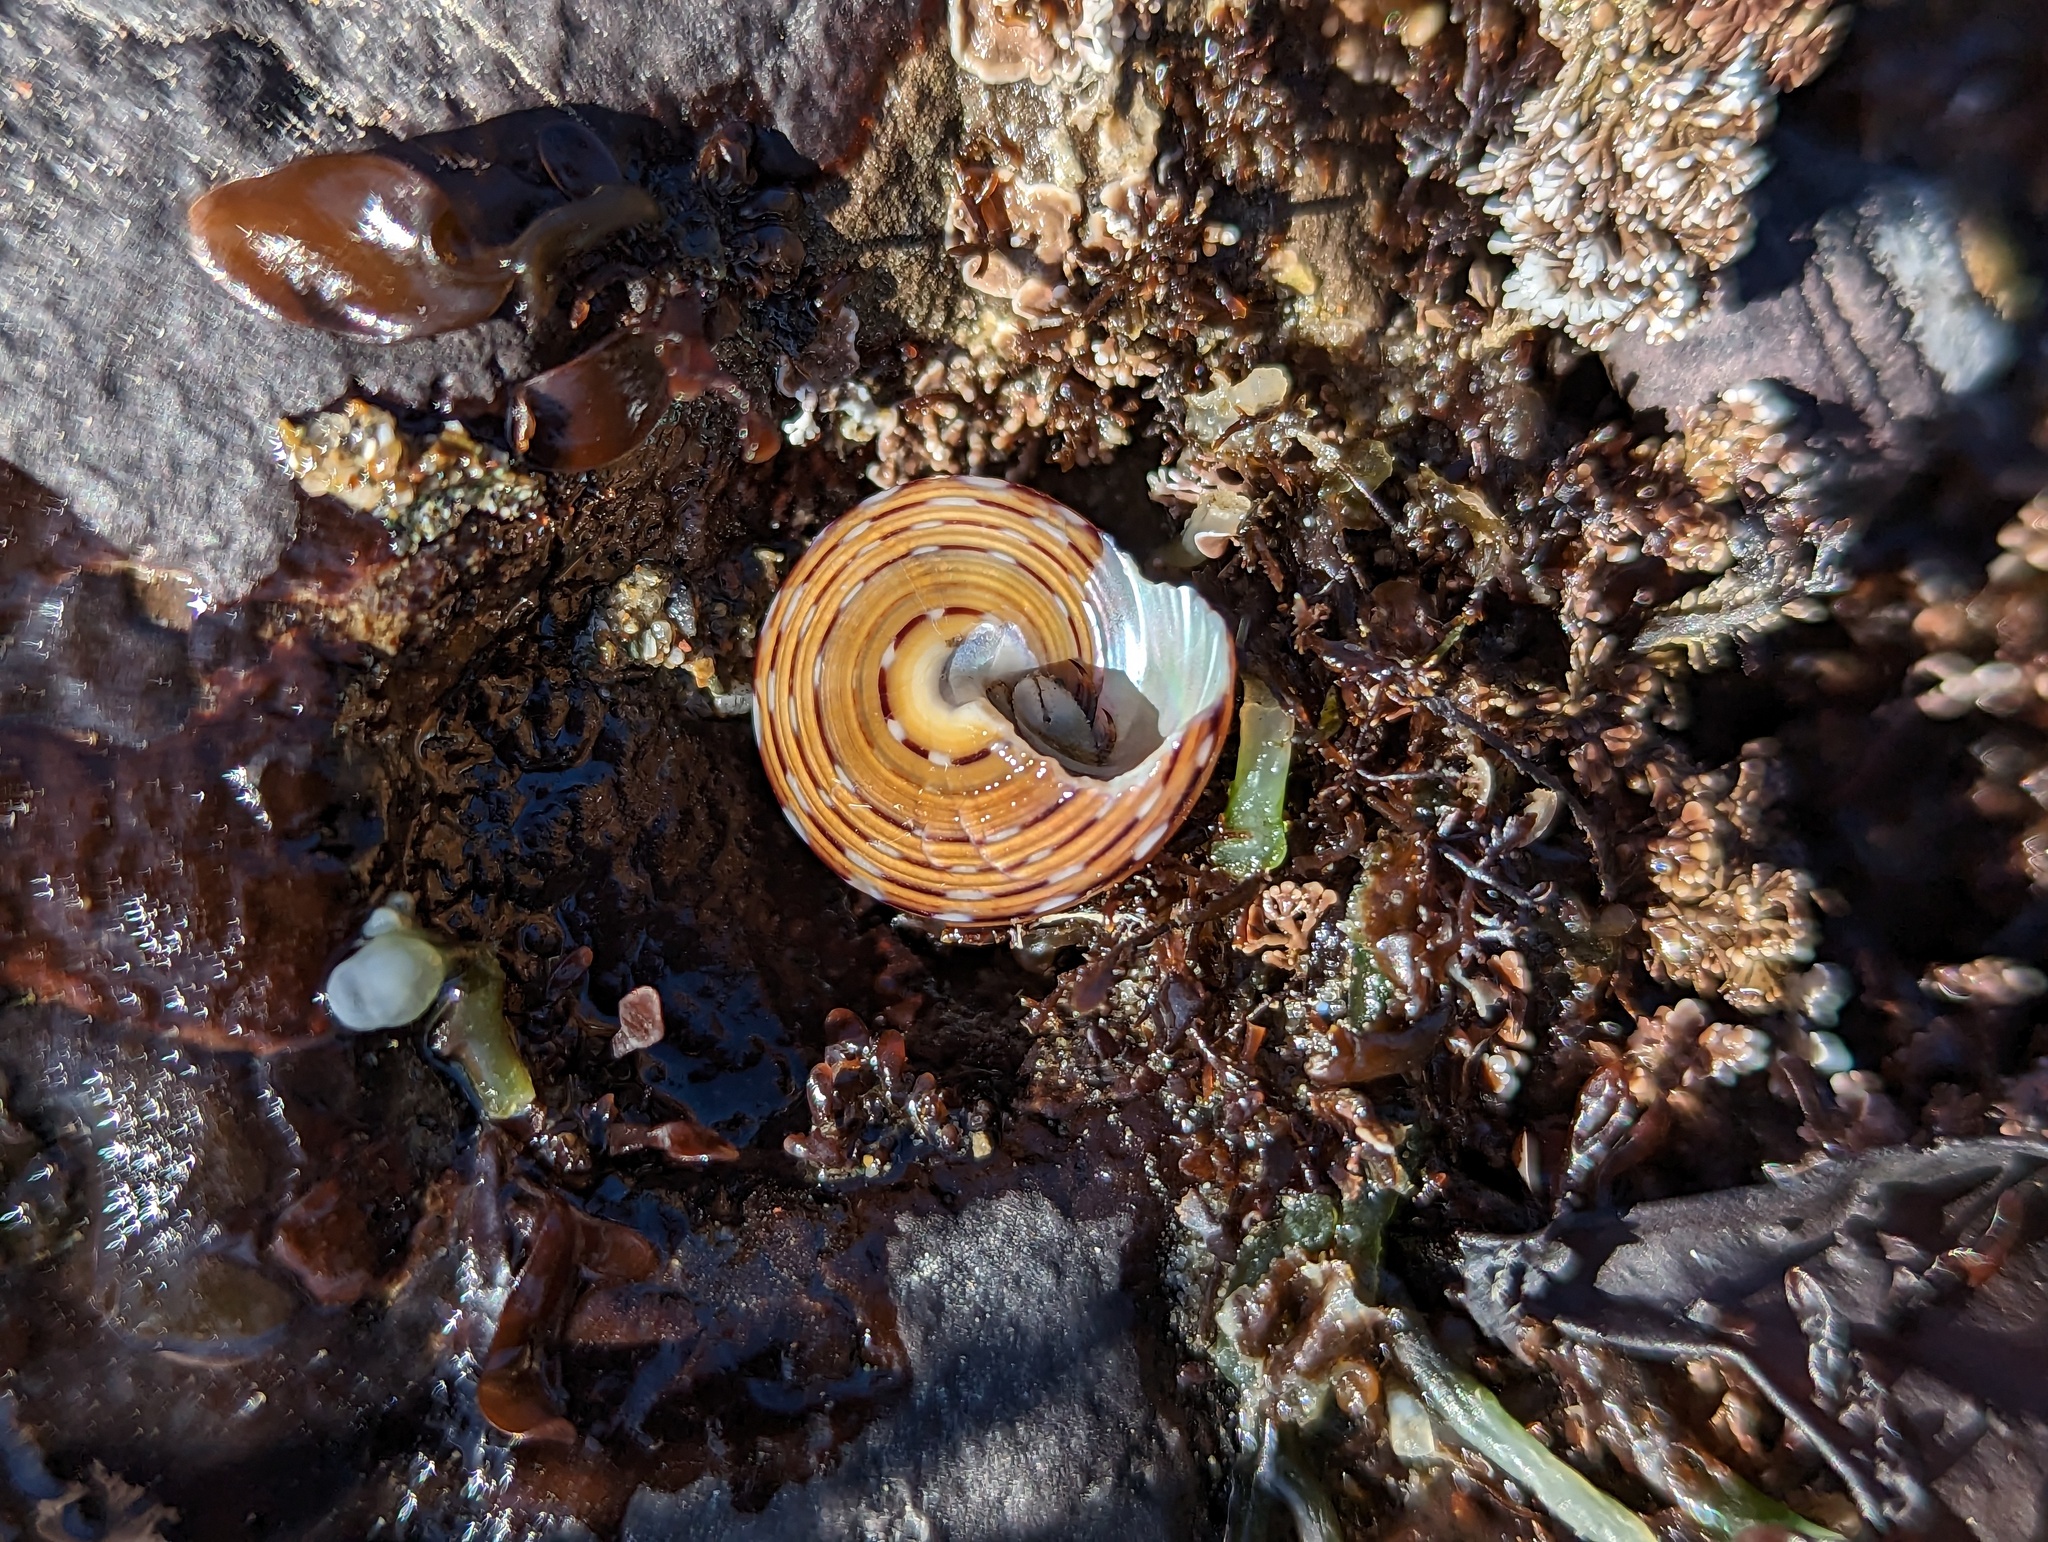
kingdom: Animalia
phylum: Mollusca
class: Gastropoda
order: Trochida
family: Calliostomatidae
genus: Calliostoma
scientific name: Calliostoma tricolor
